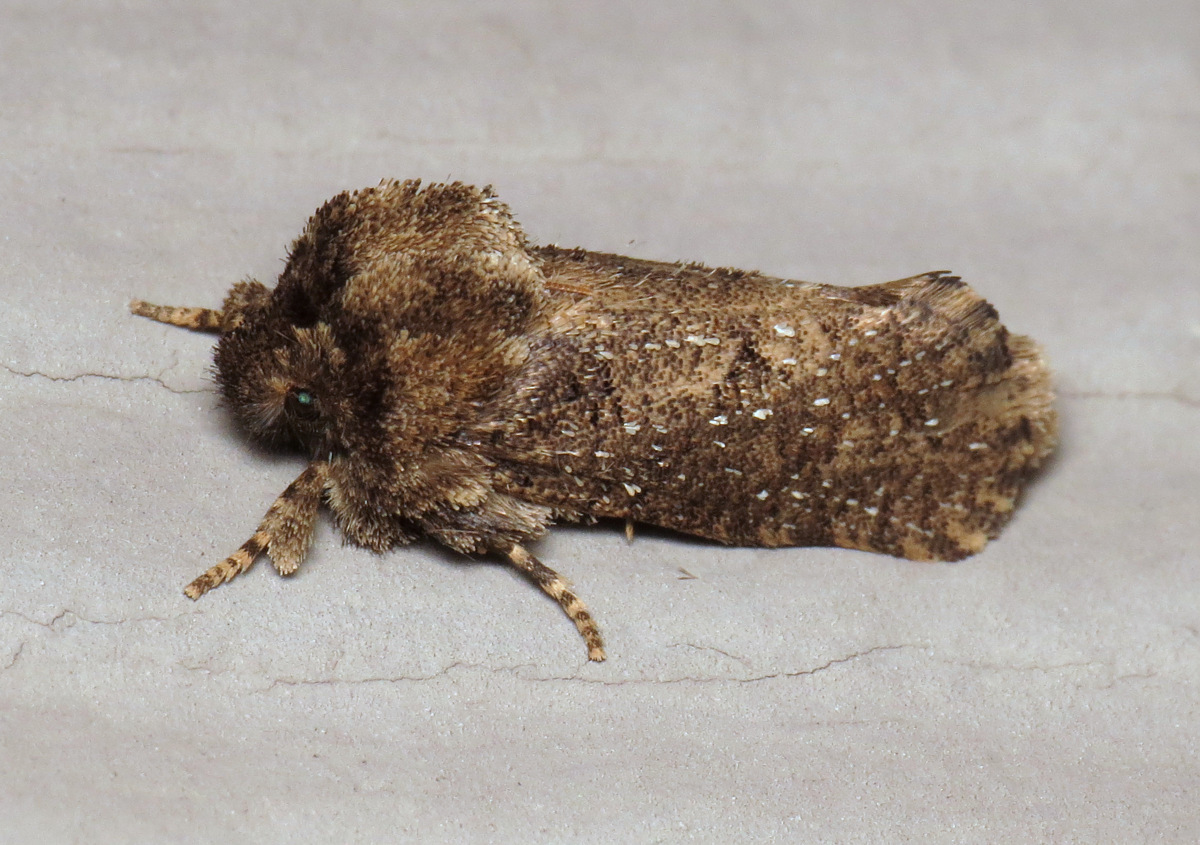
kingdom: Animalia
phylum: Arthropoda
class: Insecta
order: Lepidoptera
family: Tineidae
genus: Acrolophus
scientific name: Acrolophus arcanella
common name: Arcane grass tubeworm moth
